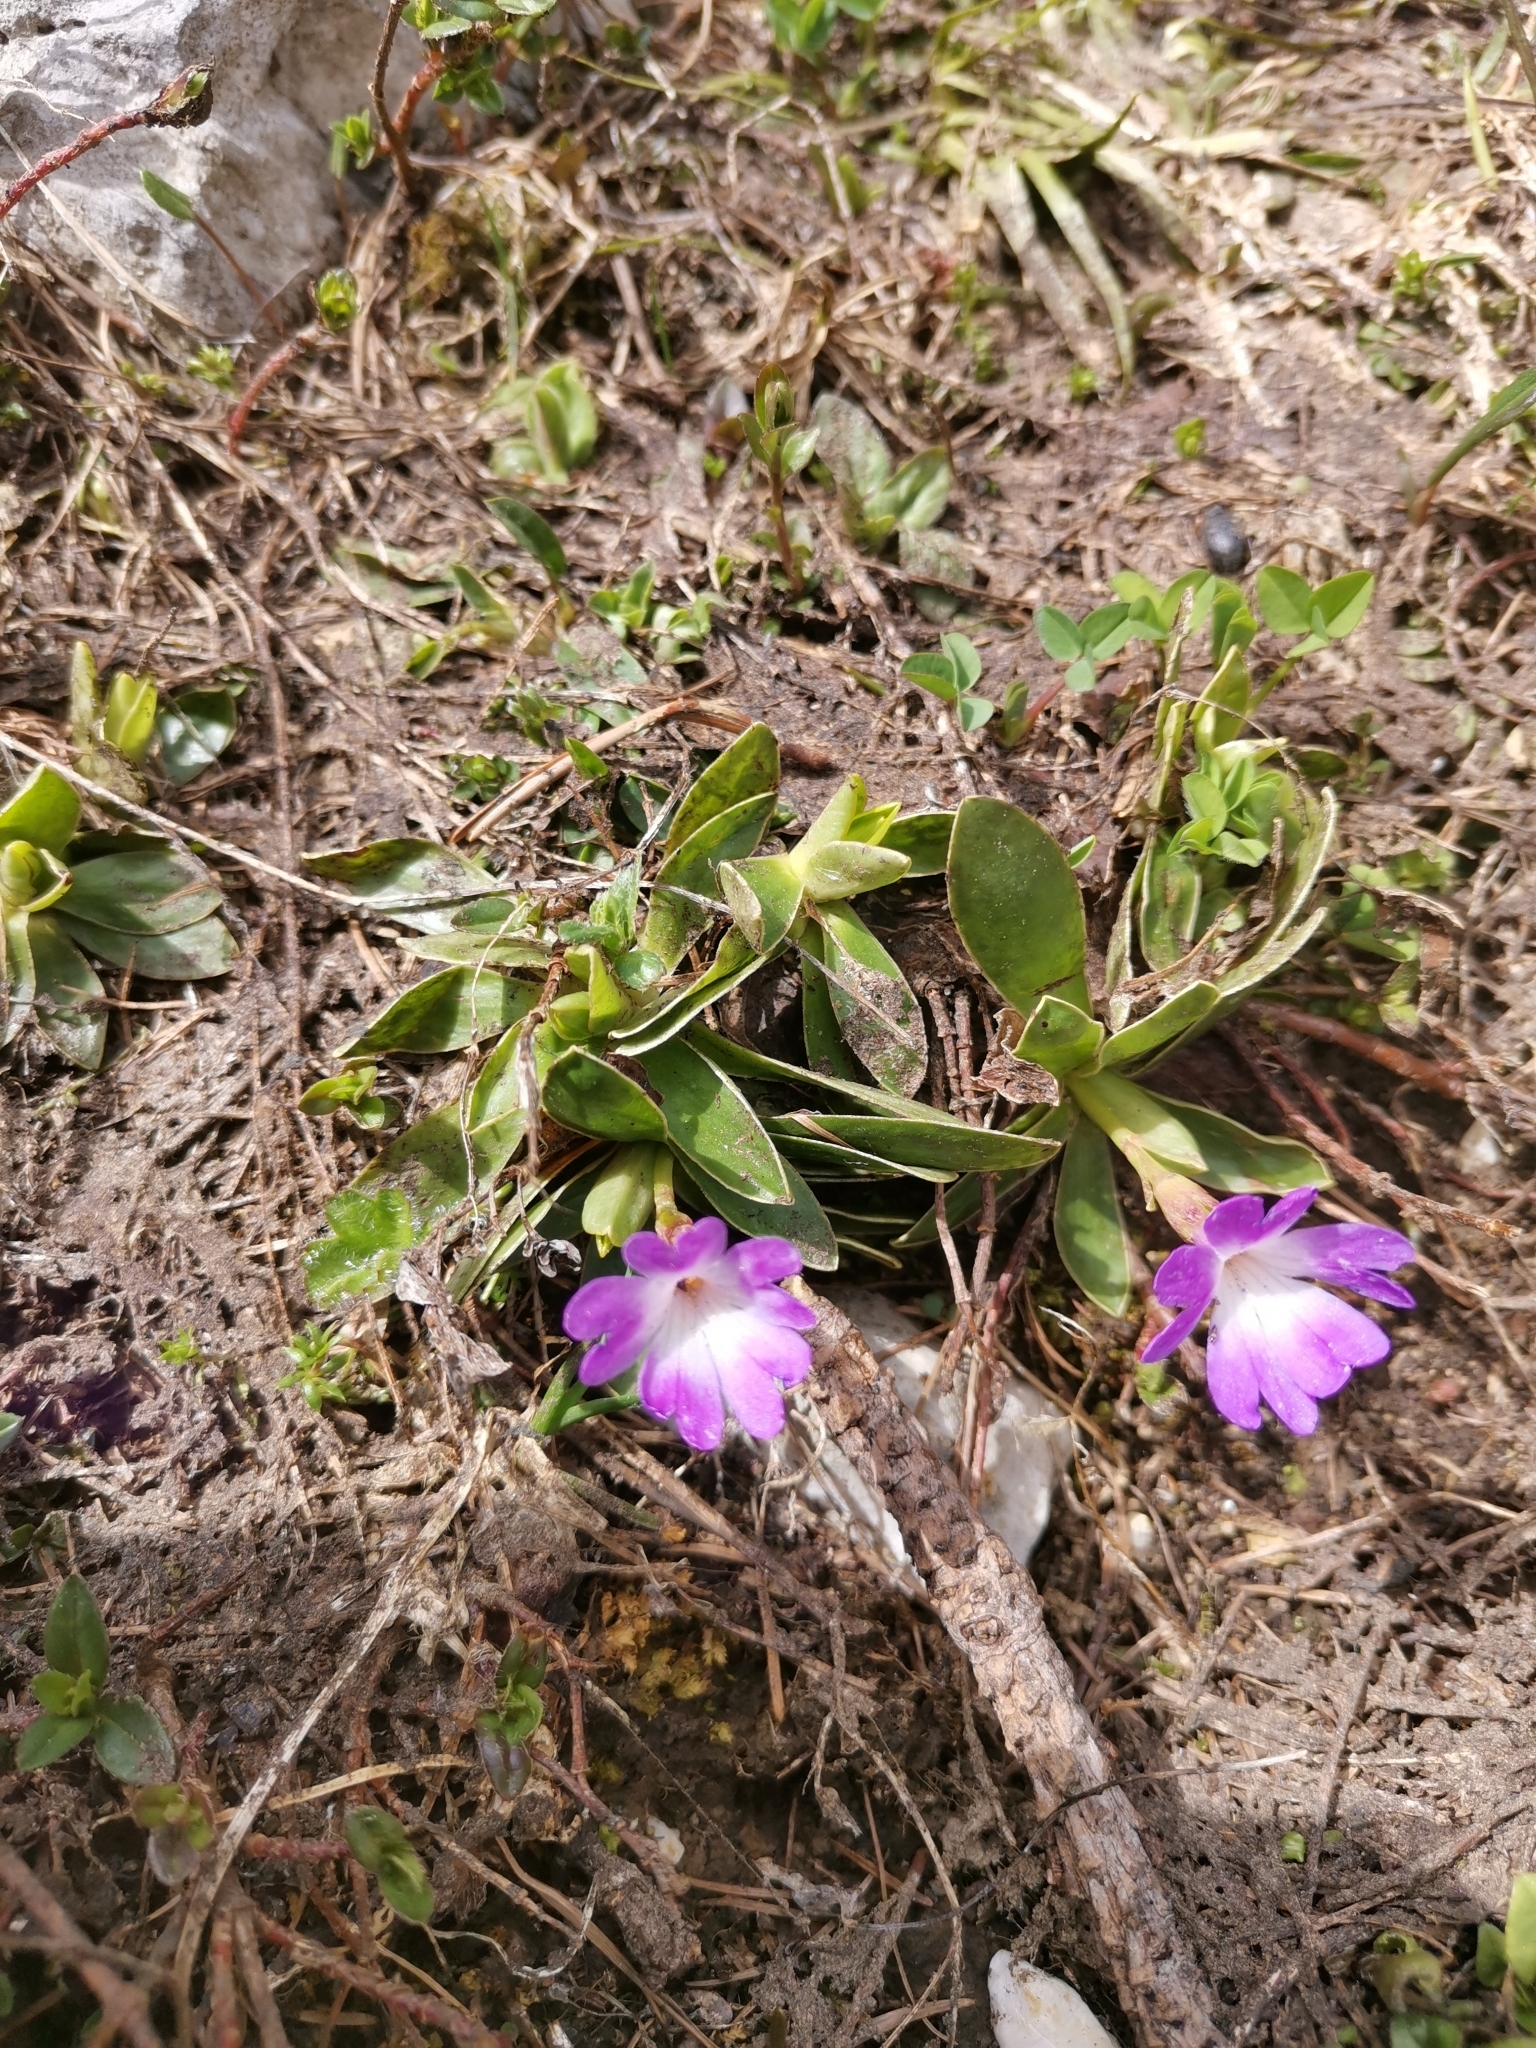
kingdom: Plantae
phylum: Tracheophyta
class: Magnoliopsida
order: Ericales
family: Primulaceae
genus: Primula
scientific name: Primula wulfeniana
